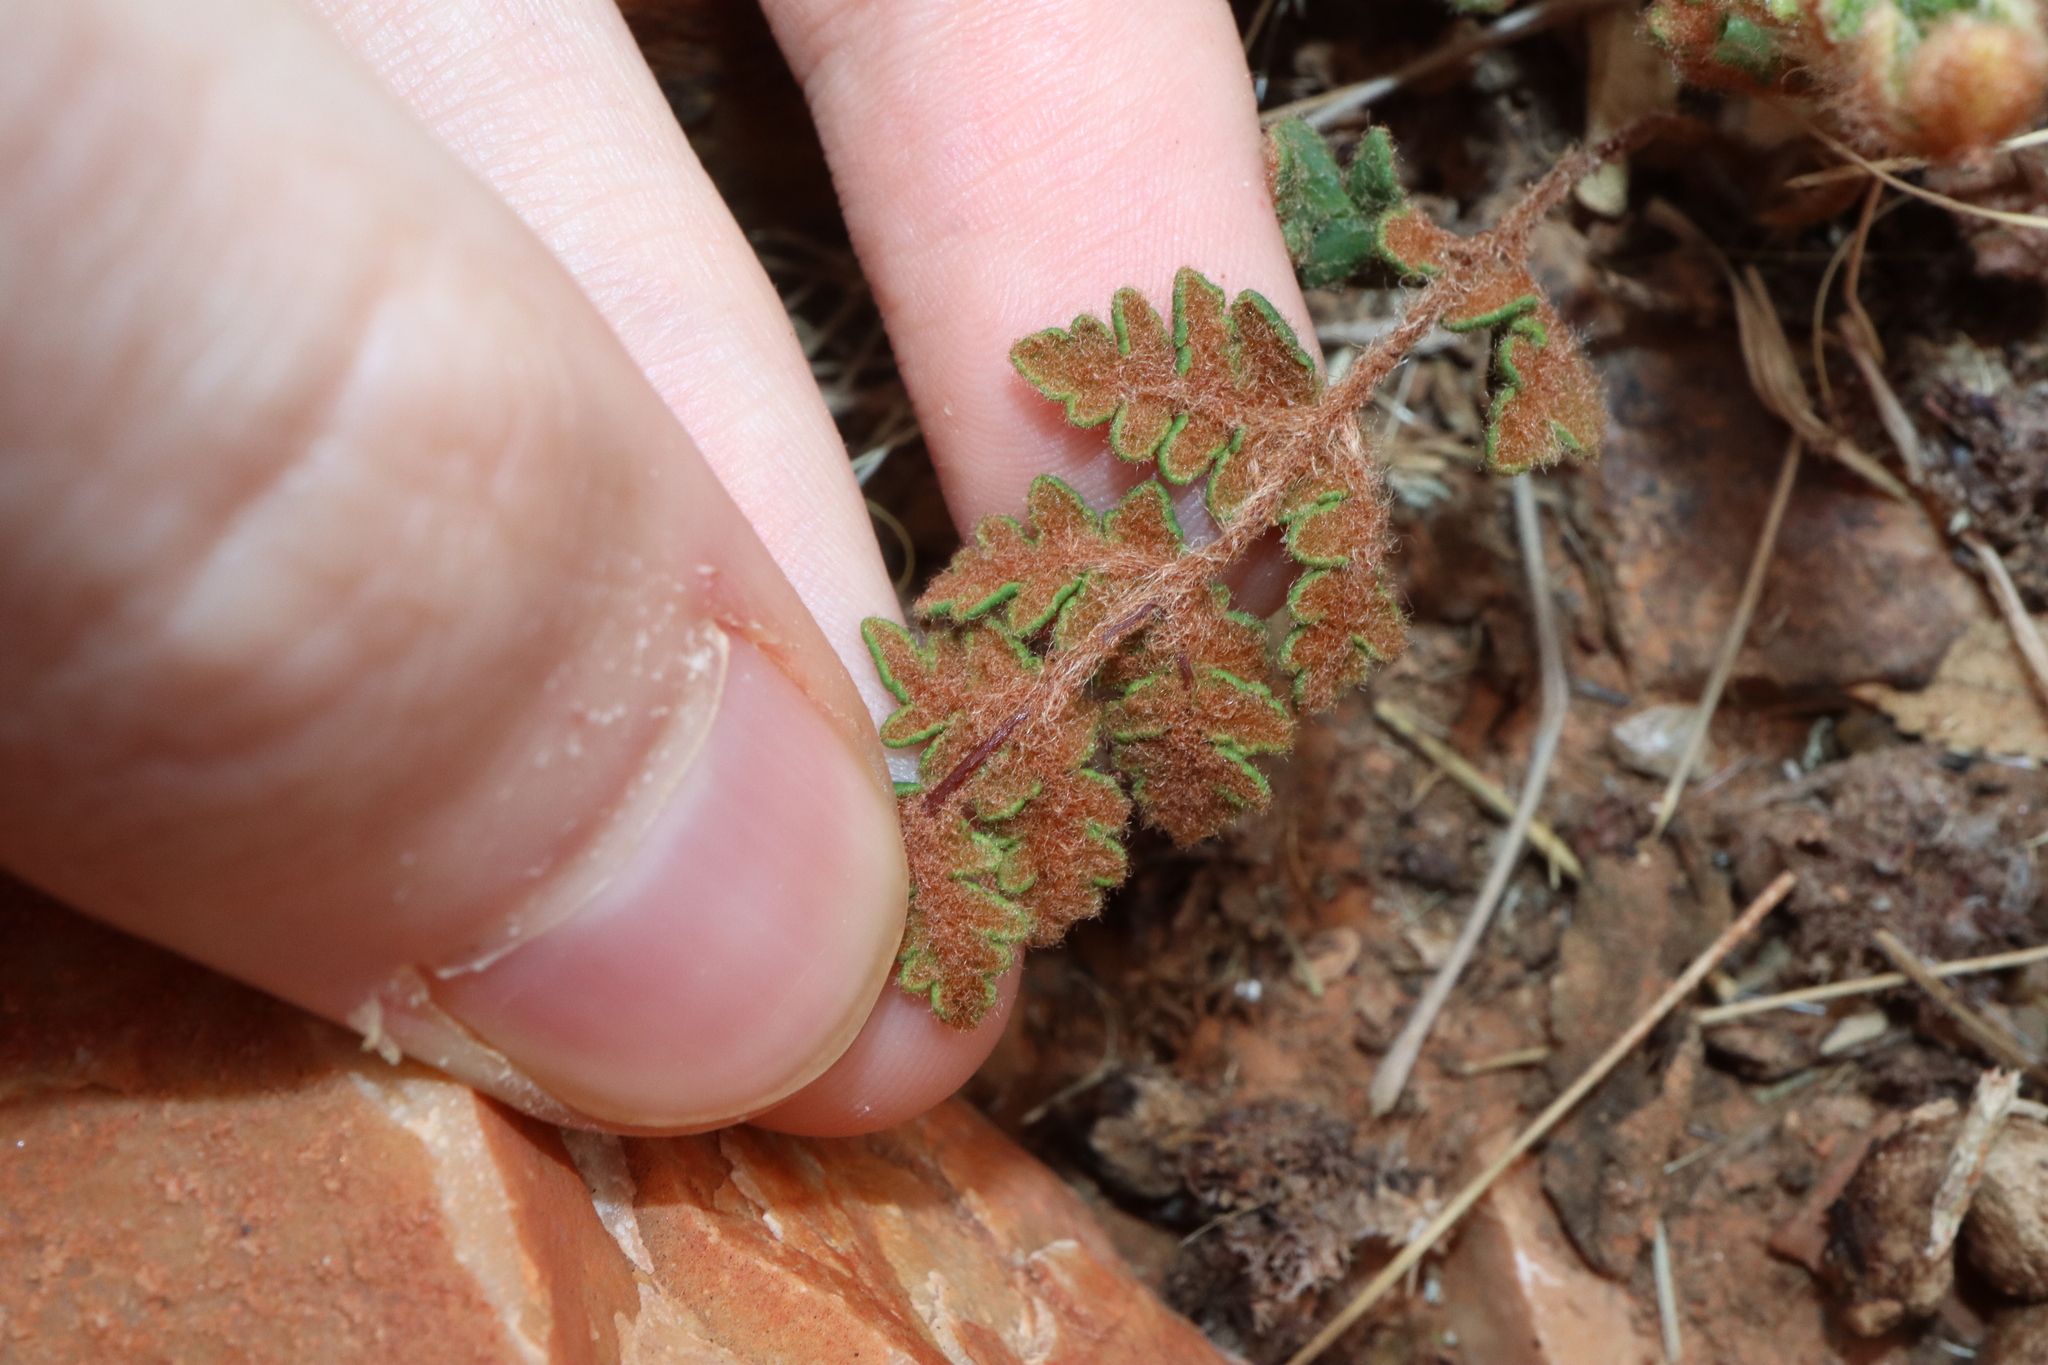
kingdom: Plantae
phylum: Tracheophyta
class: Polypodiopsida
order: Polypodiales
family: Pteridaceae
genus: Cheilanthes
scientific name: Cheilanthes lasiophylla
